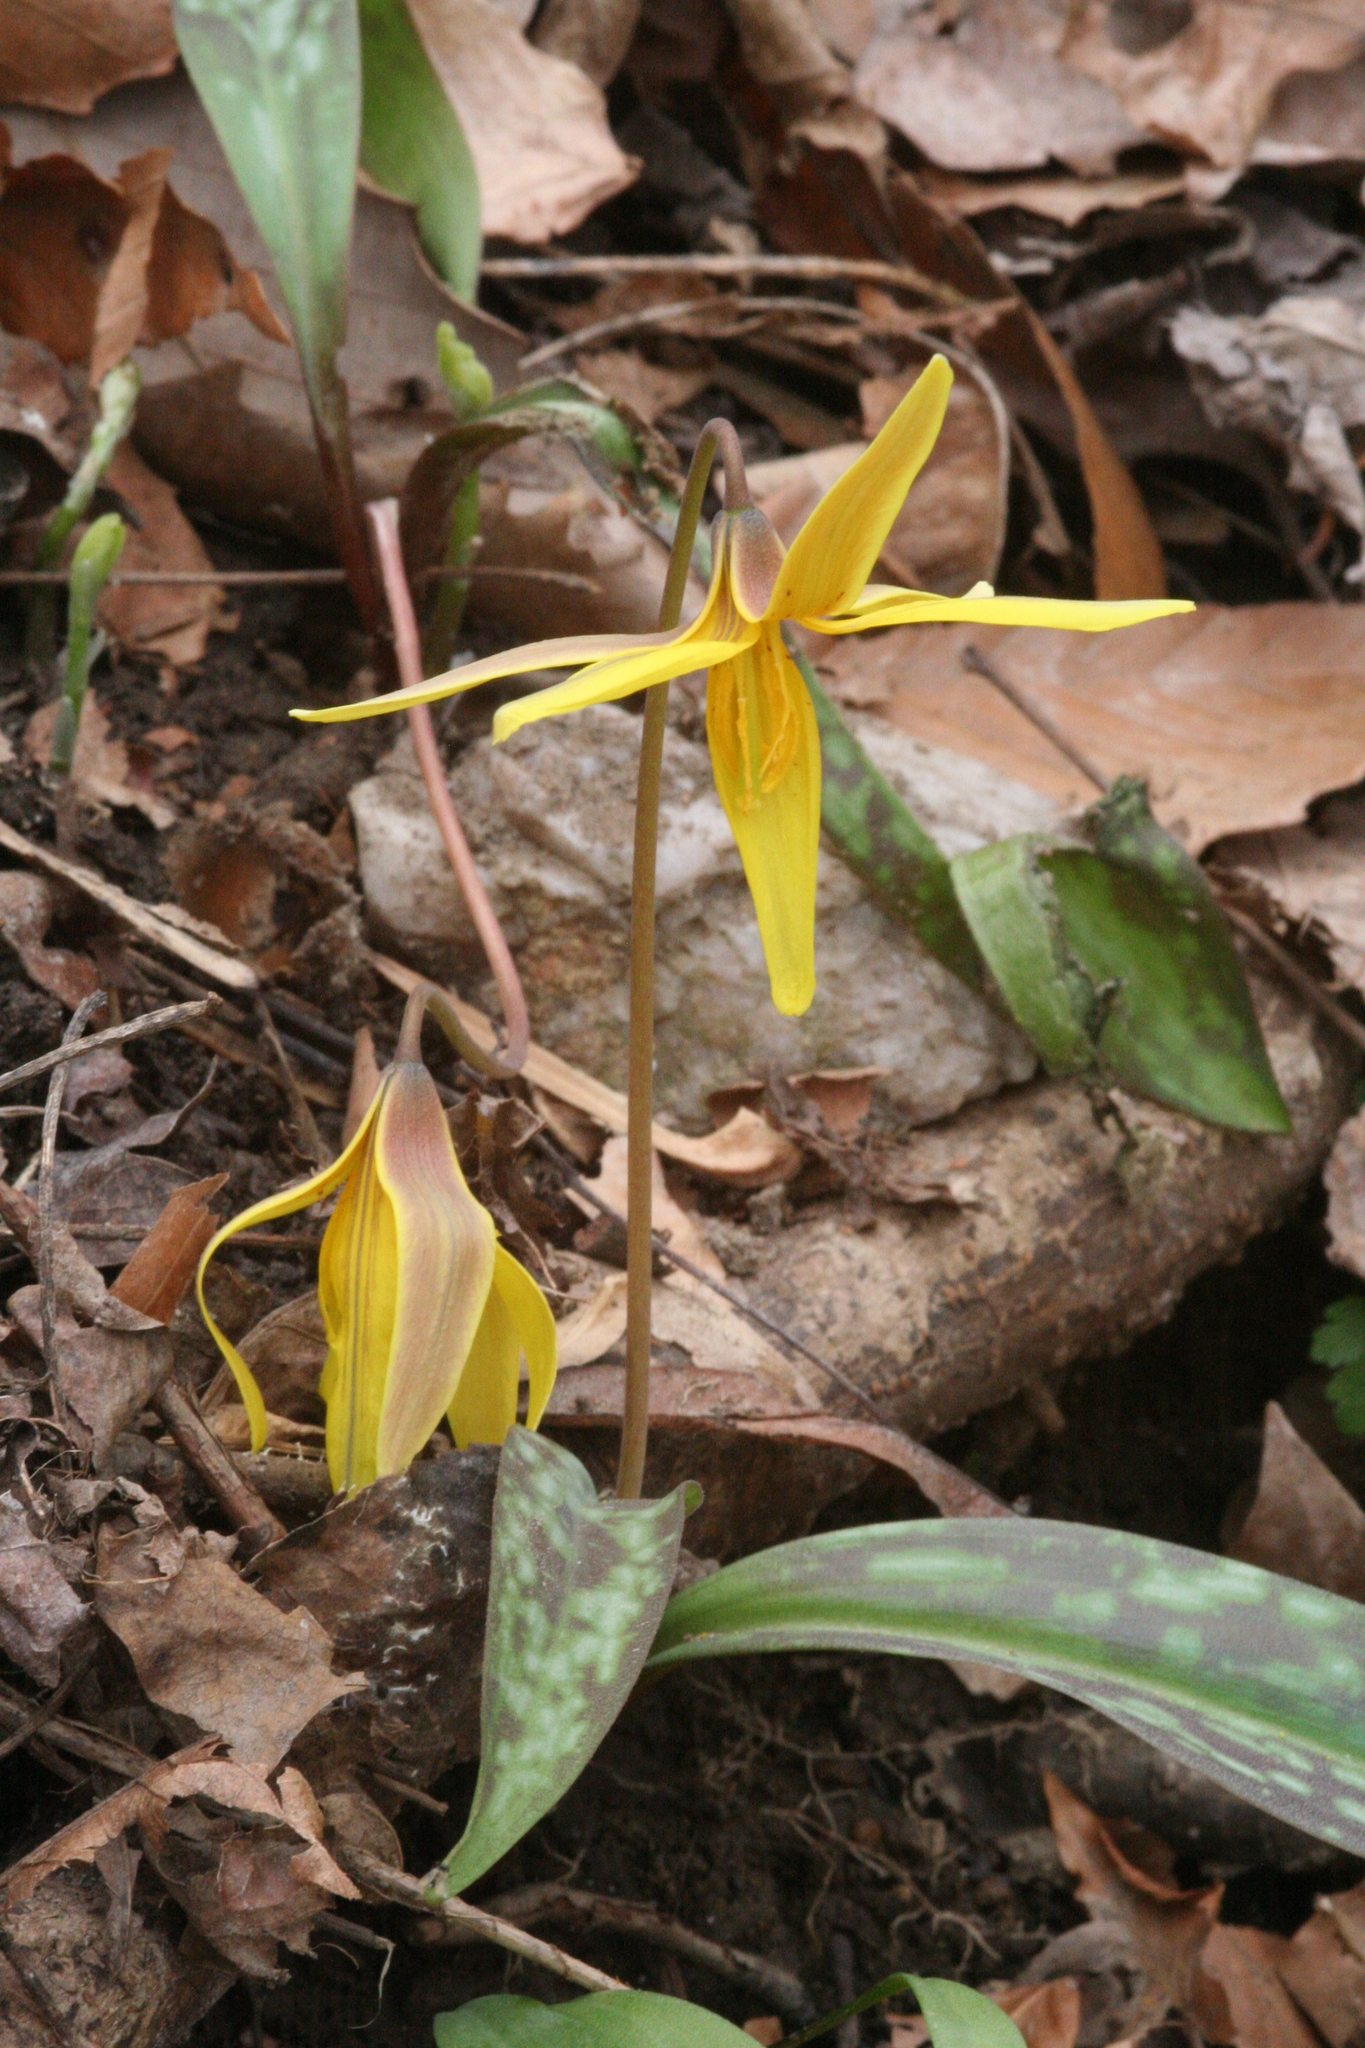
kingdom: Plantae
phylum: Tracheophyta
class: Liliopsida
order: Liliales
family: Liliaceae
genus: Erythronium
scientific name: Erythronium americanum
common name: Yellow adder's-tongue
